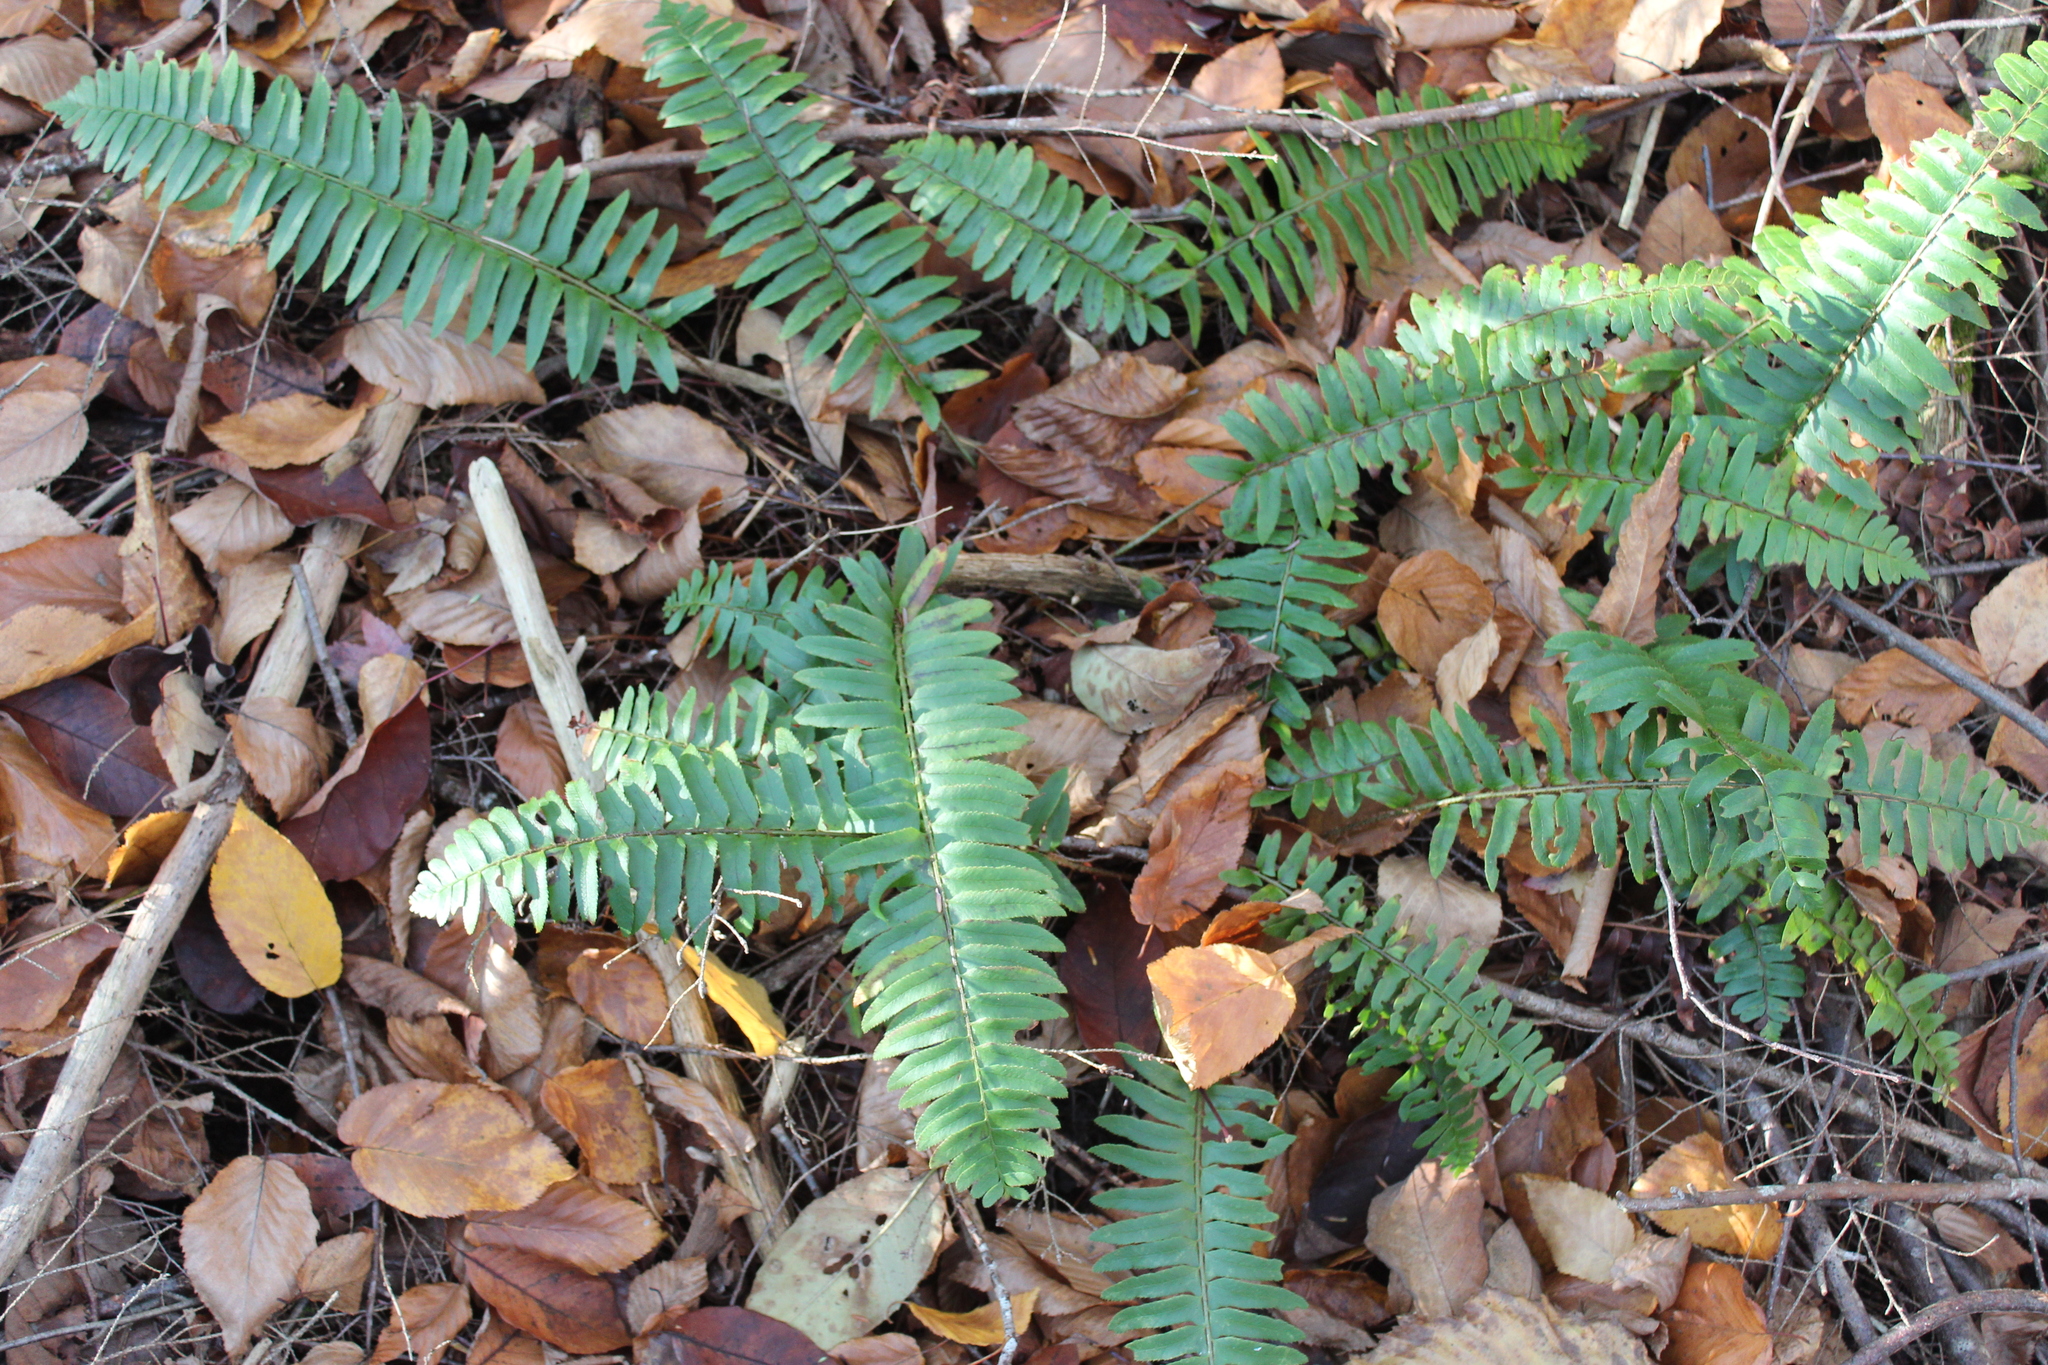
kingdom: Plantae
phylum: Tracheophyta
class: Polypodiopsida
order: Polypodiales
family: Dryopteridaceae
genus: Polystichum
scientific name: Polystichum acrostichoides
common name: Christmas fern
